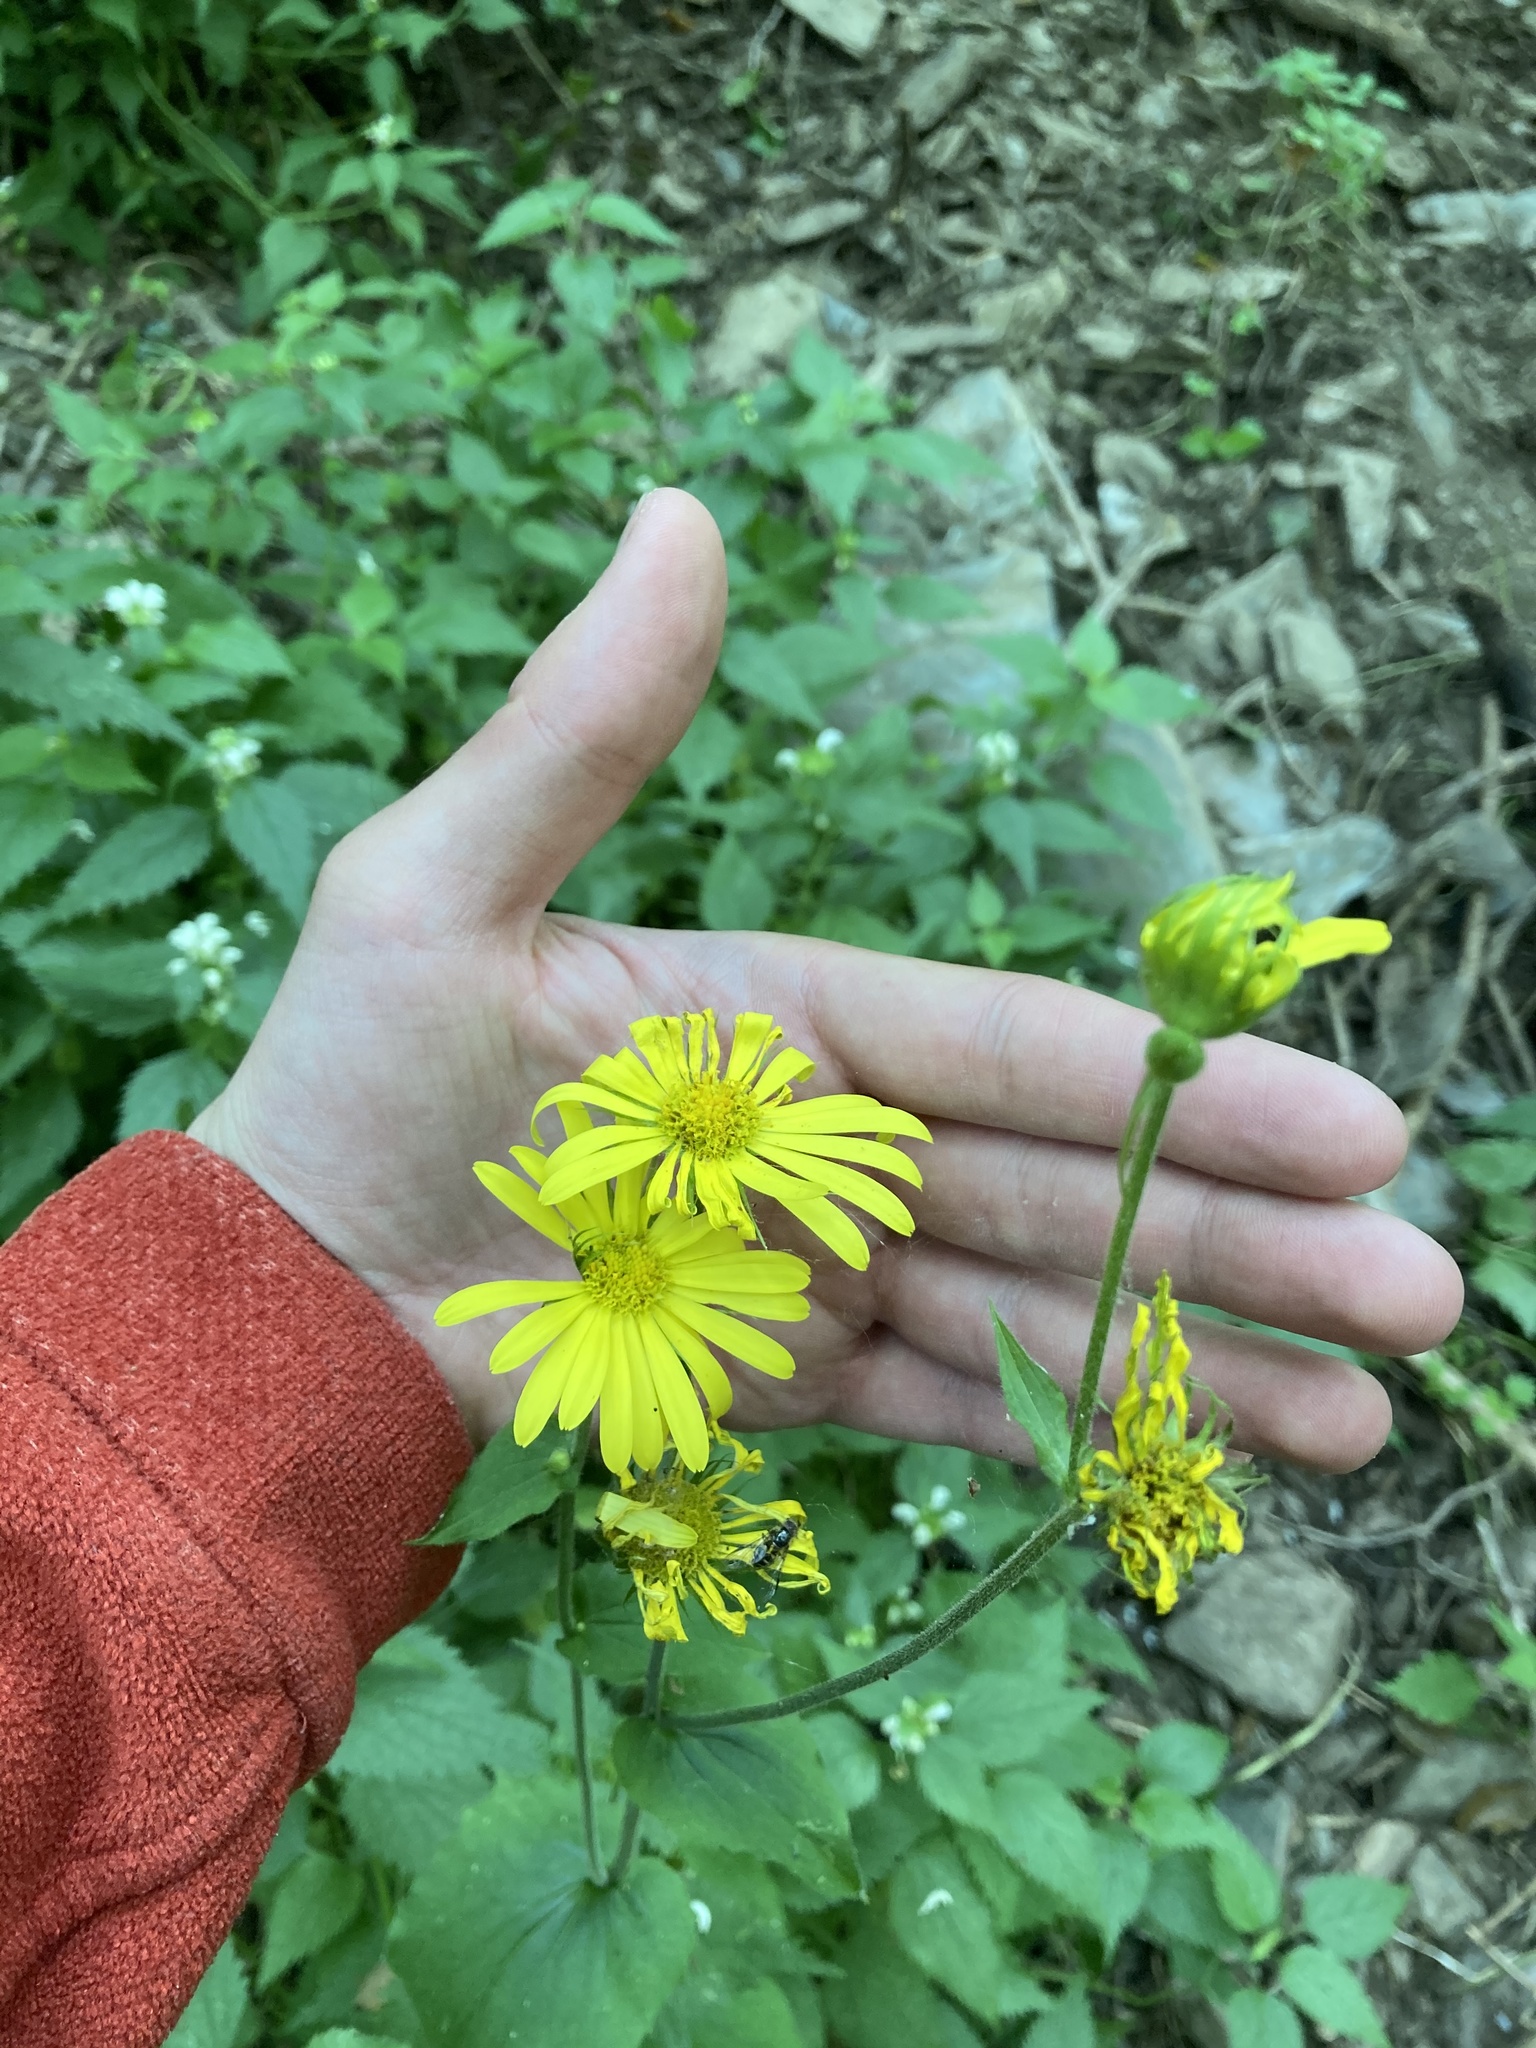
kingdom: Plantae
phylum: Tracheophyta
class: Magnoliopsida
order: Asterales
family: Asteraceae
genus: Doronicum
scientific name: Doronicum pardalianches
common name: Leopard's-bane
